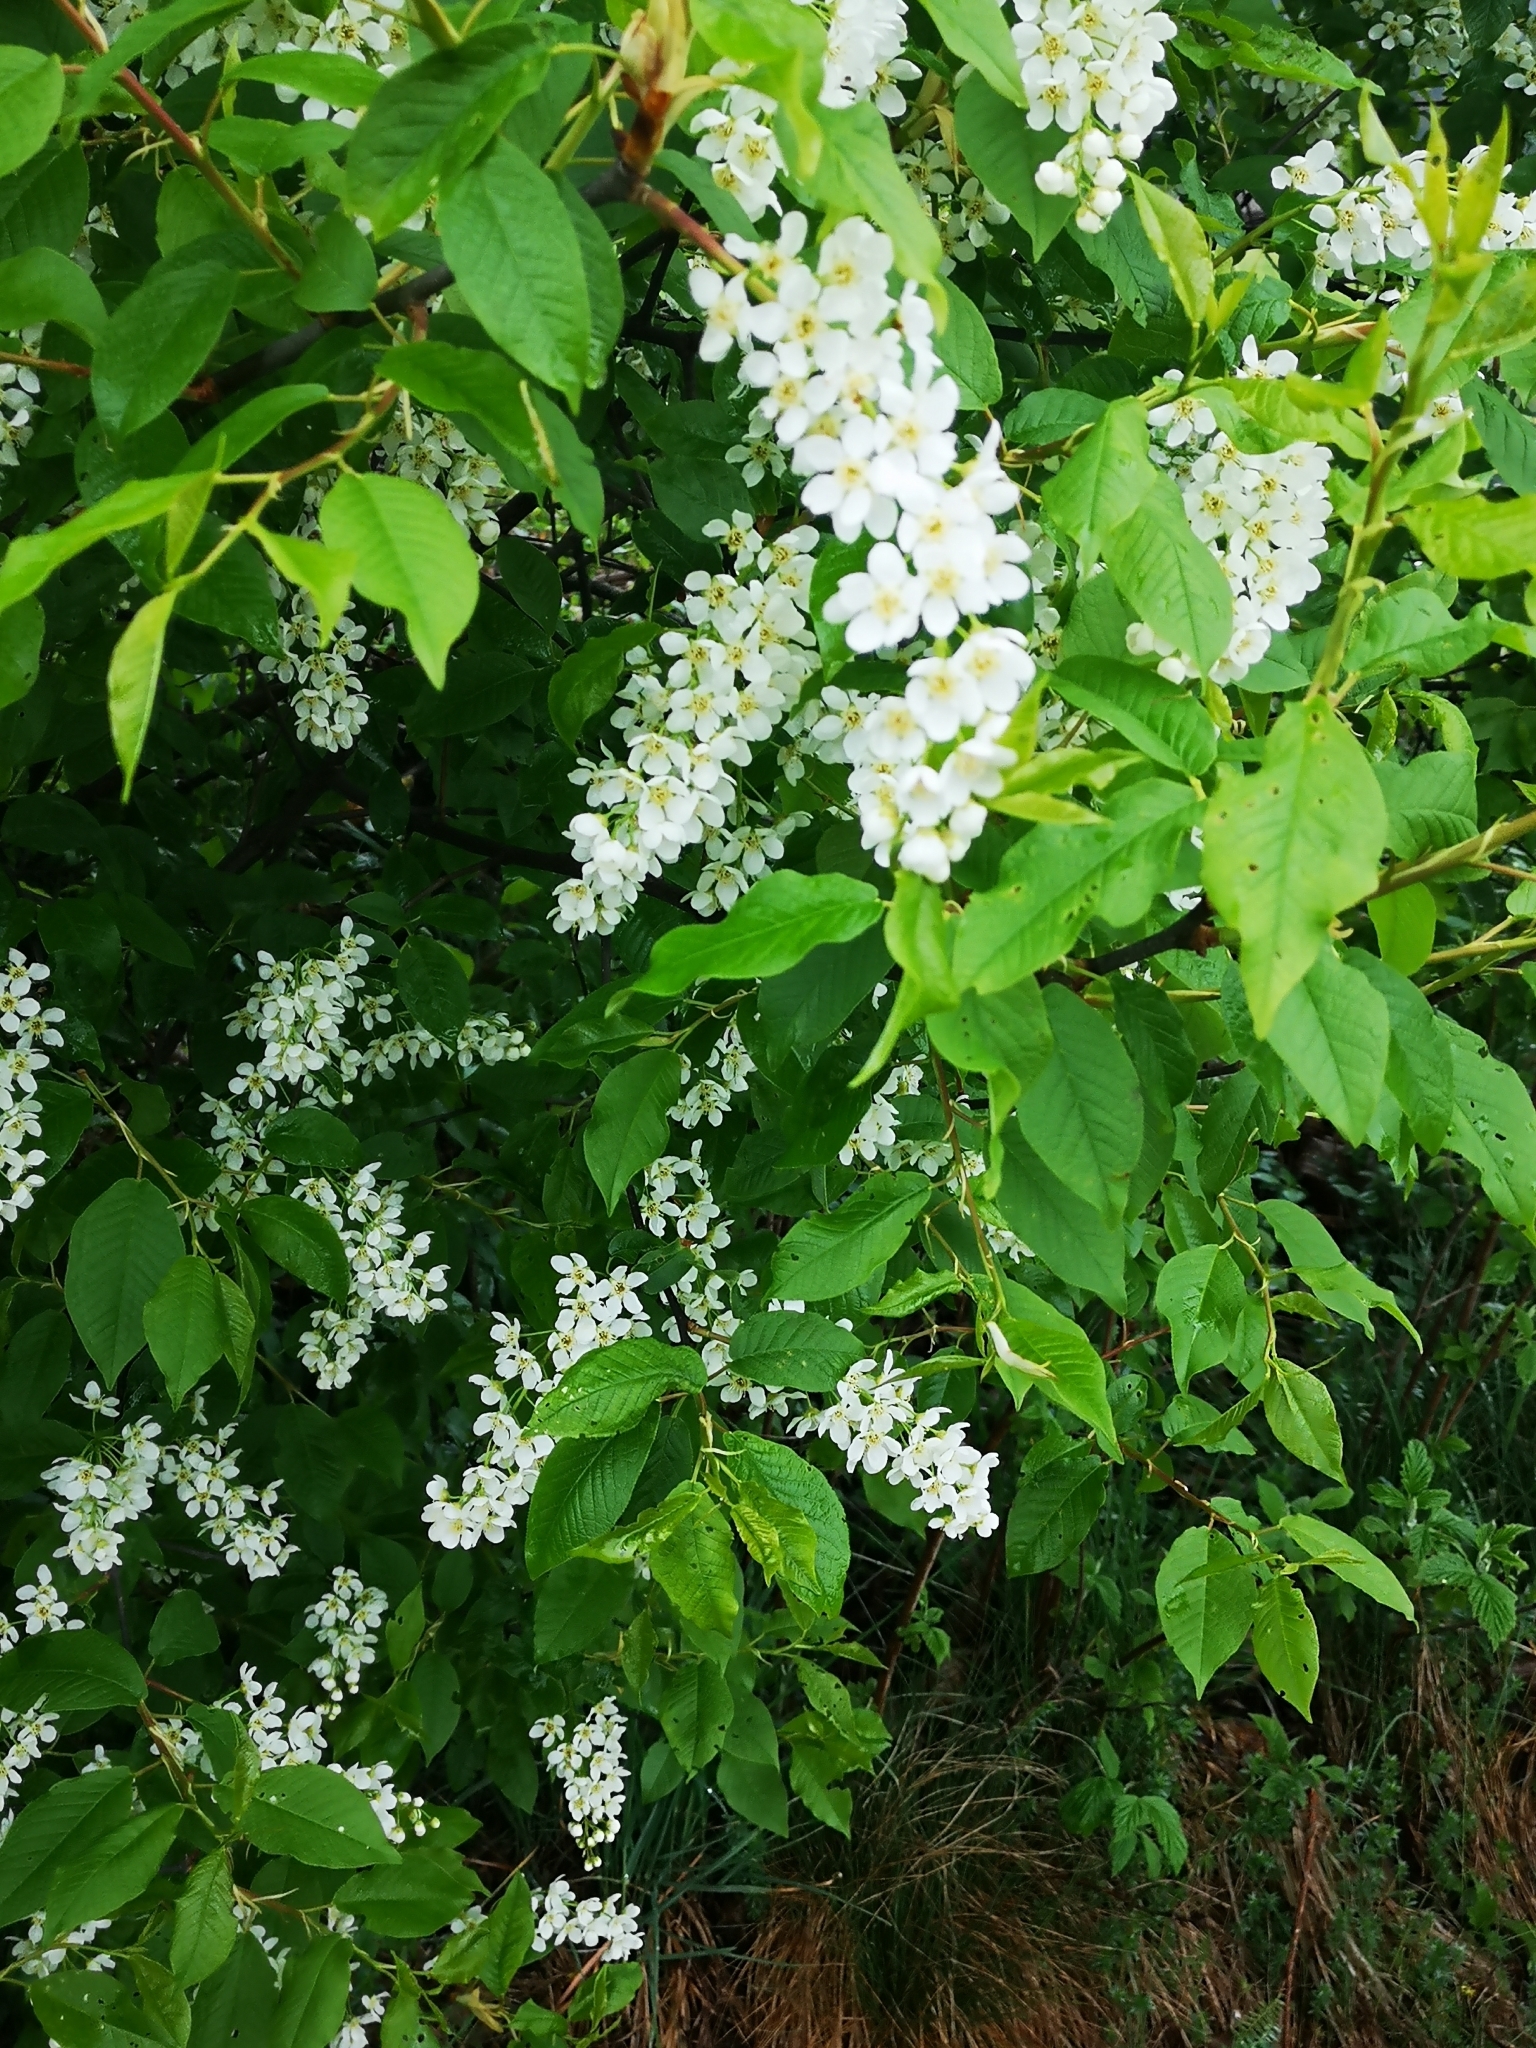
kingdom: Plantae
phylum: Tracheophyta
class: Magnoliopsida
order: Rosales
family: Rosaceae
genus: Prunus
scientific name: Prunus padus
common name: Bird cherry
